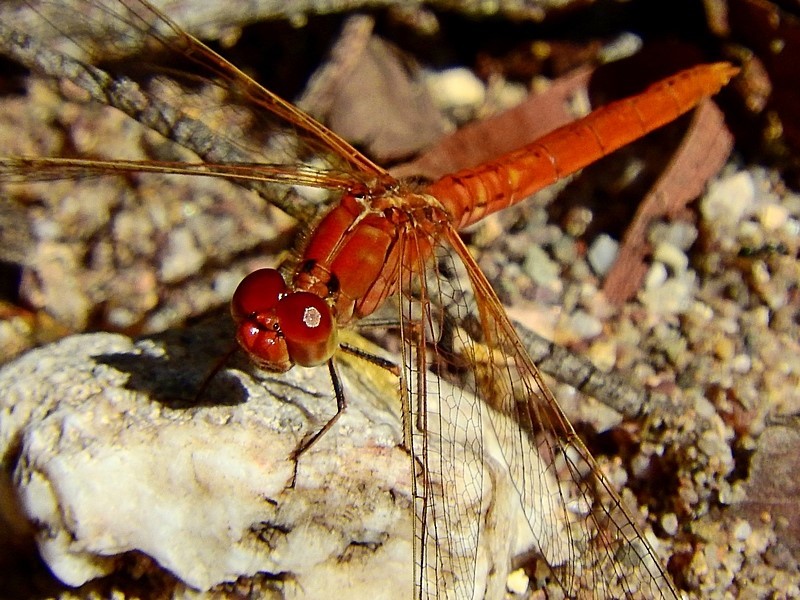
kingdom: Animalia
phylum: Arthropoda
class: Insecta
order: Odonata
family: Libellulidae
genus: Diplacodes
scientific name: Diplacodes haematodes
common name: Scarlet percher
